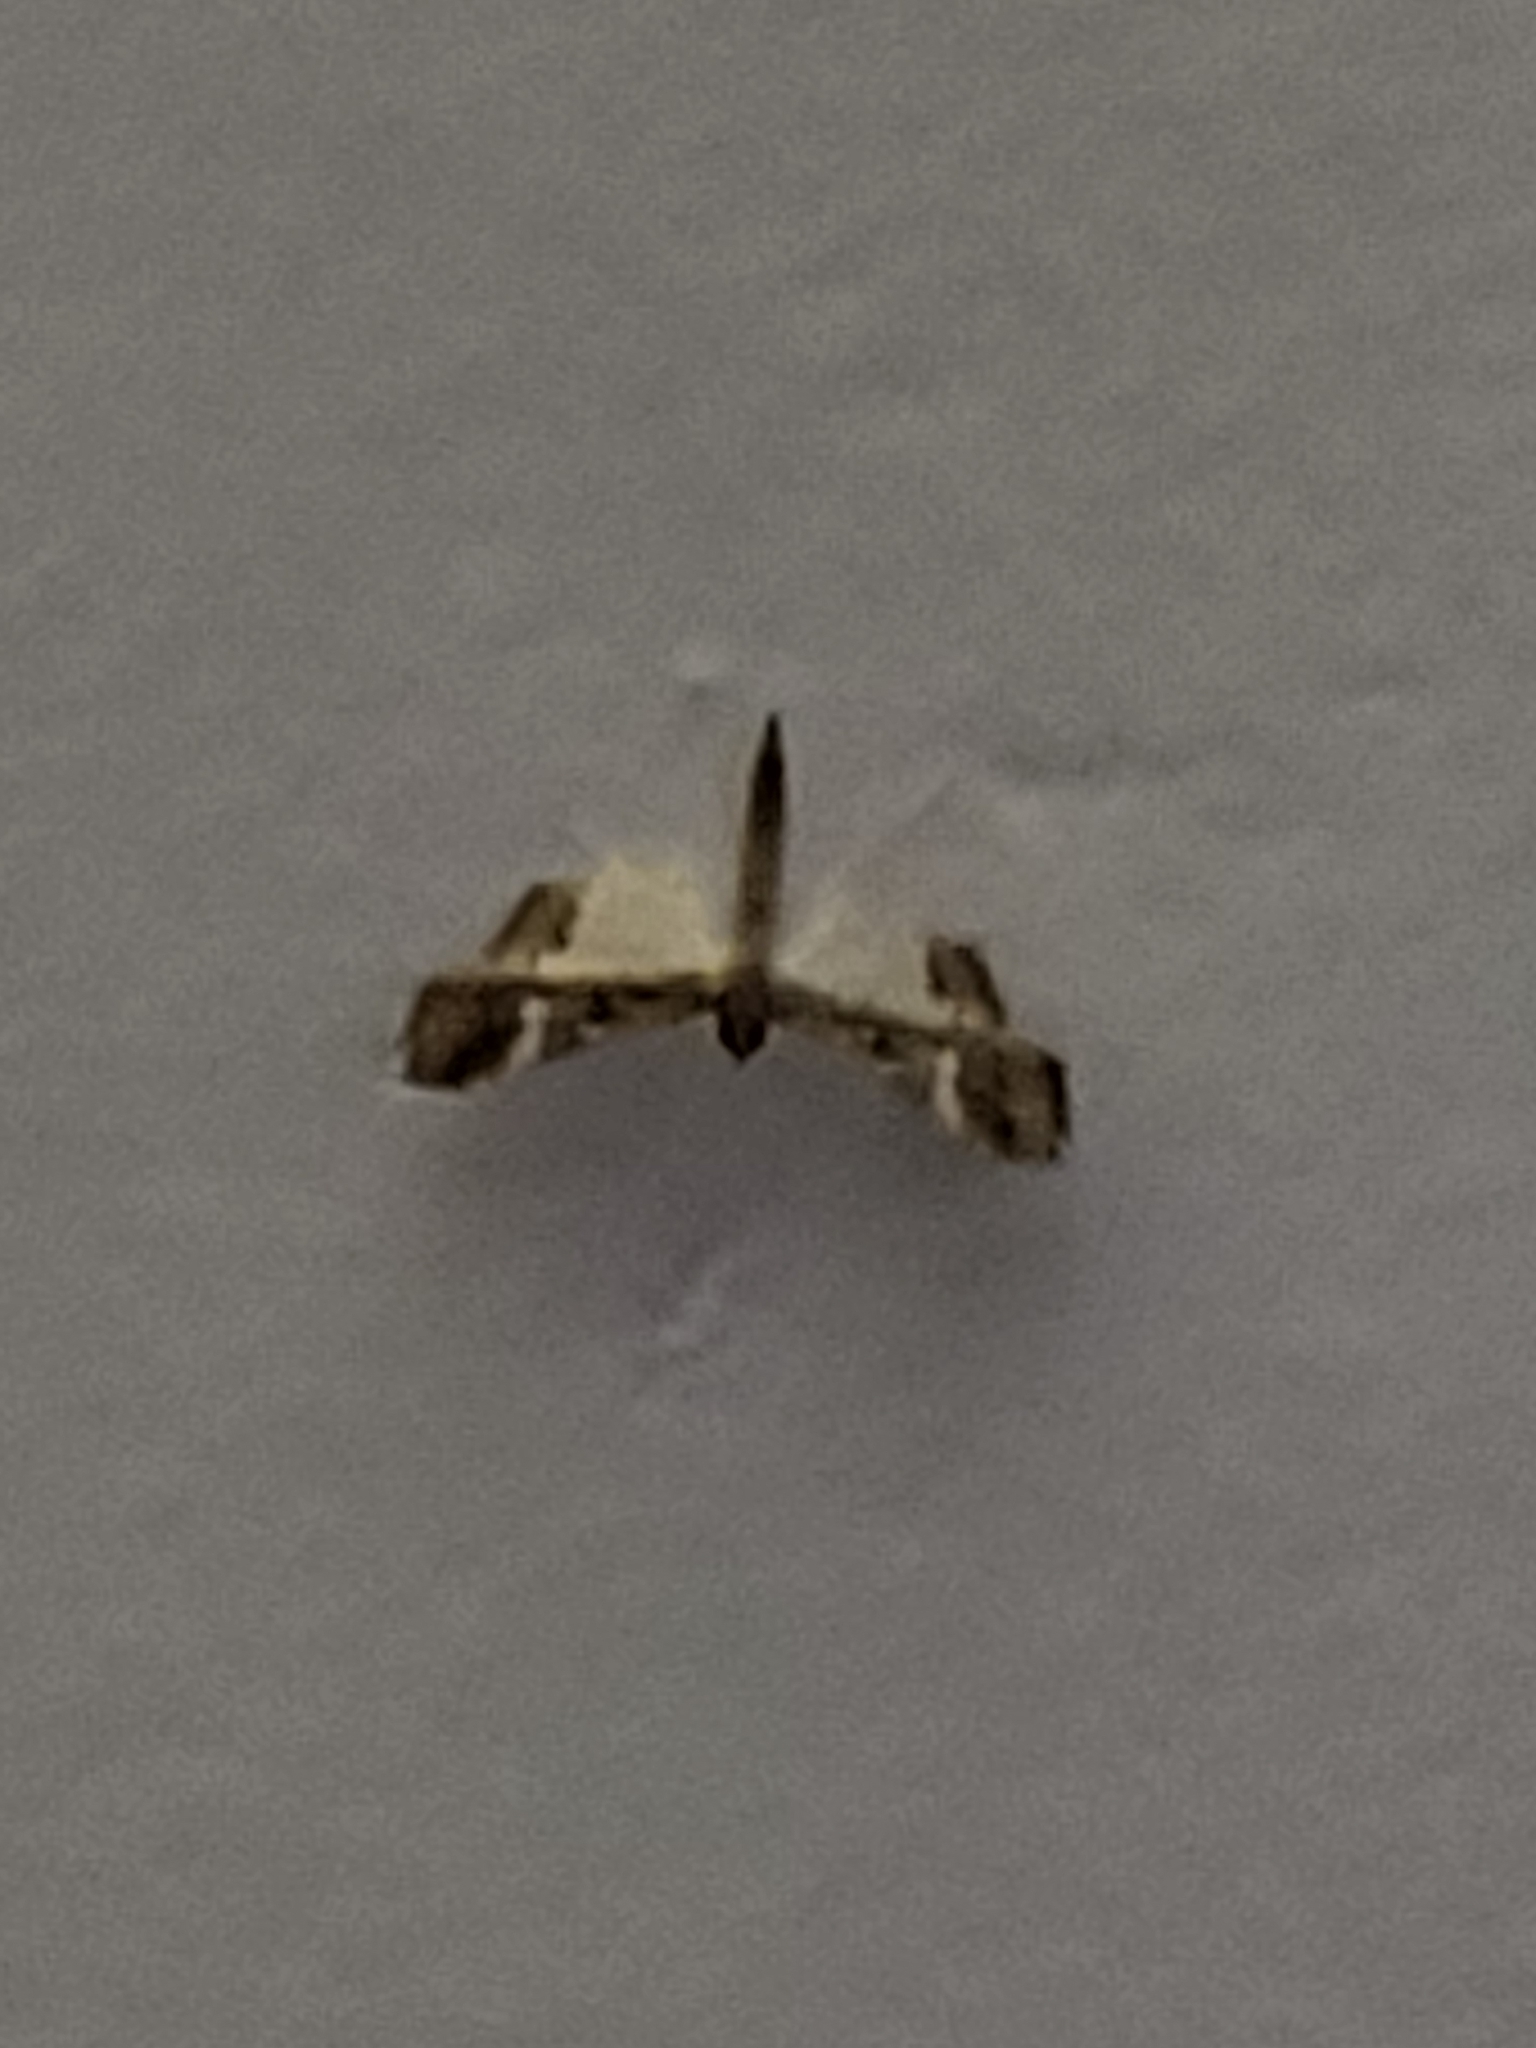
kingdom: Animalia
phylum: Arthropoda
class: Insecta
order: Lepidoptera
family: Crambidae
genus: Maruca
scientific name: Maruca vitrata
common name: Maruca pod borer
